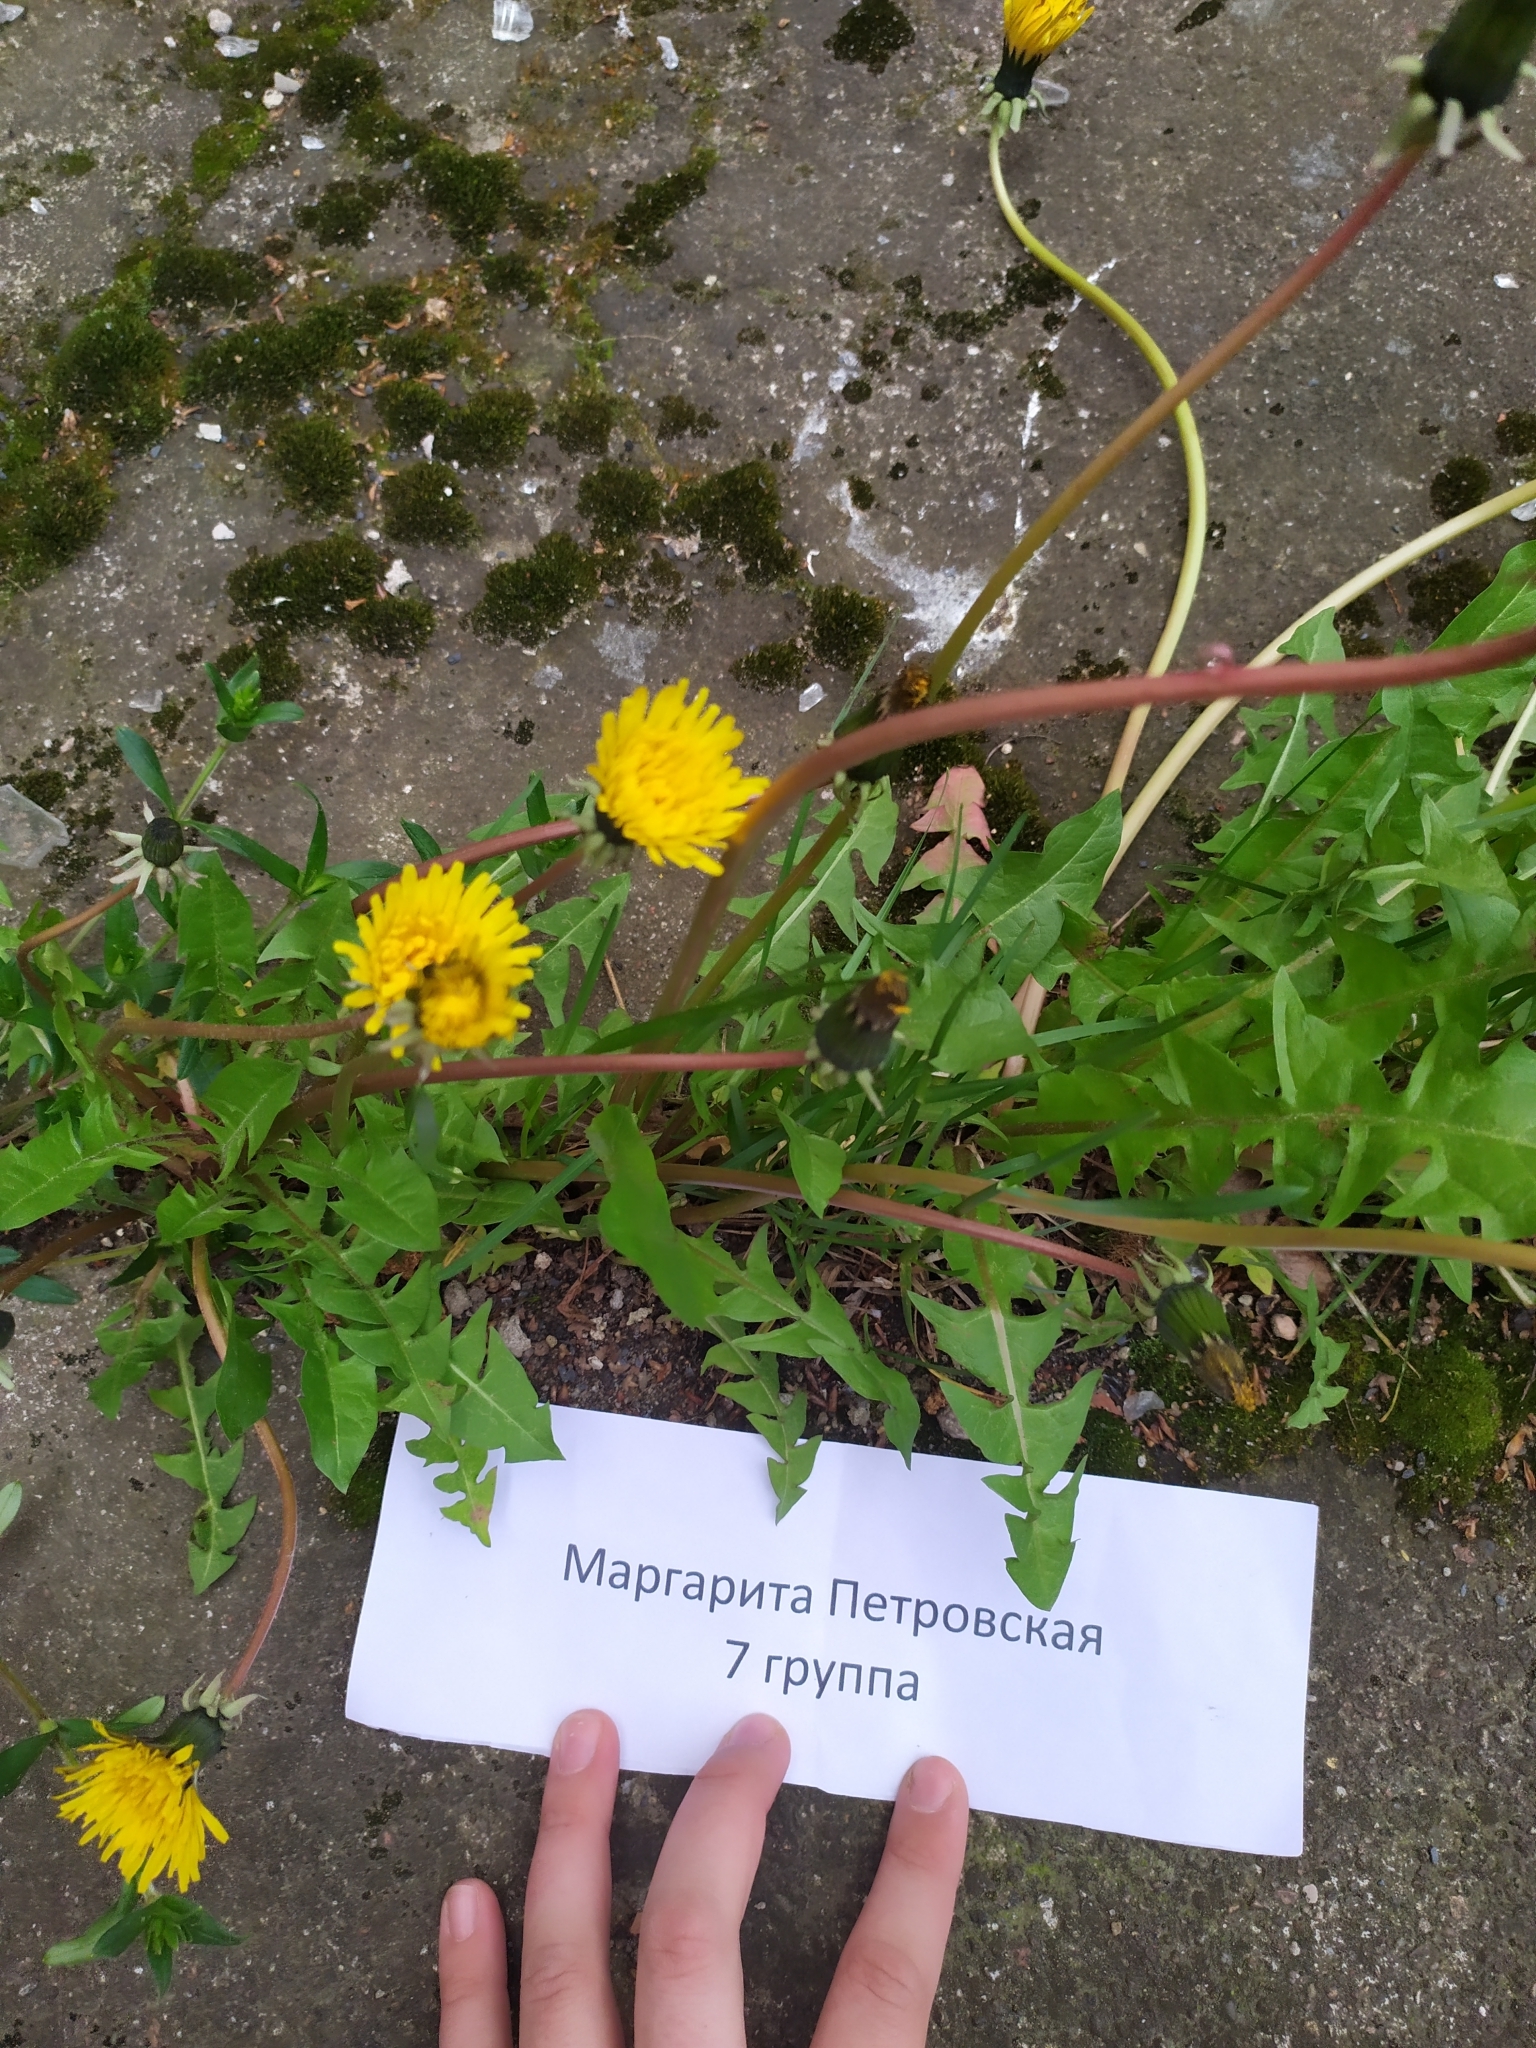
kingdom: Plantae
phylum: Tracheophyta
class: Magnoliopsida
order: Asterales
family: Asteraceae
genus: Taraxacum
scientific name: Taraxacum officinale
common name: Common dandelion
